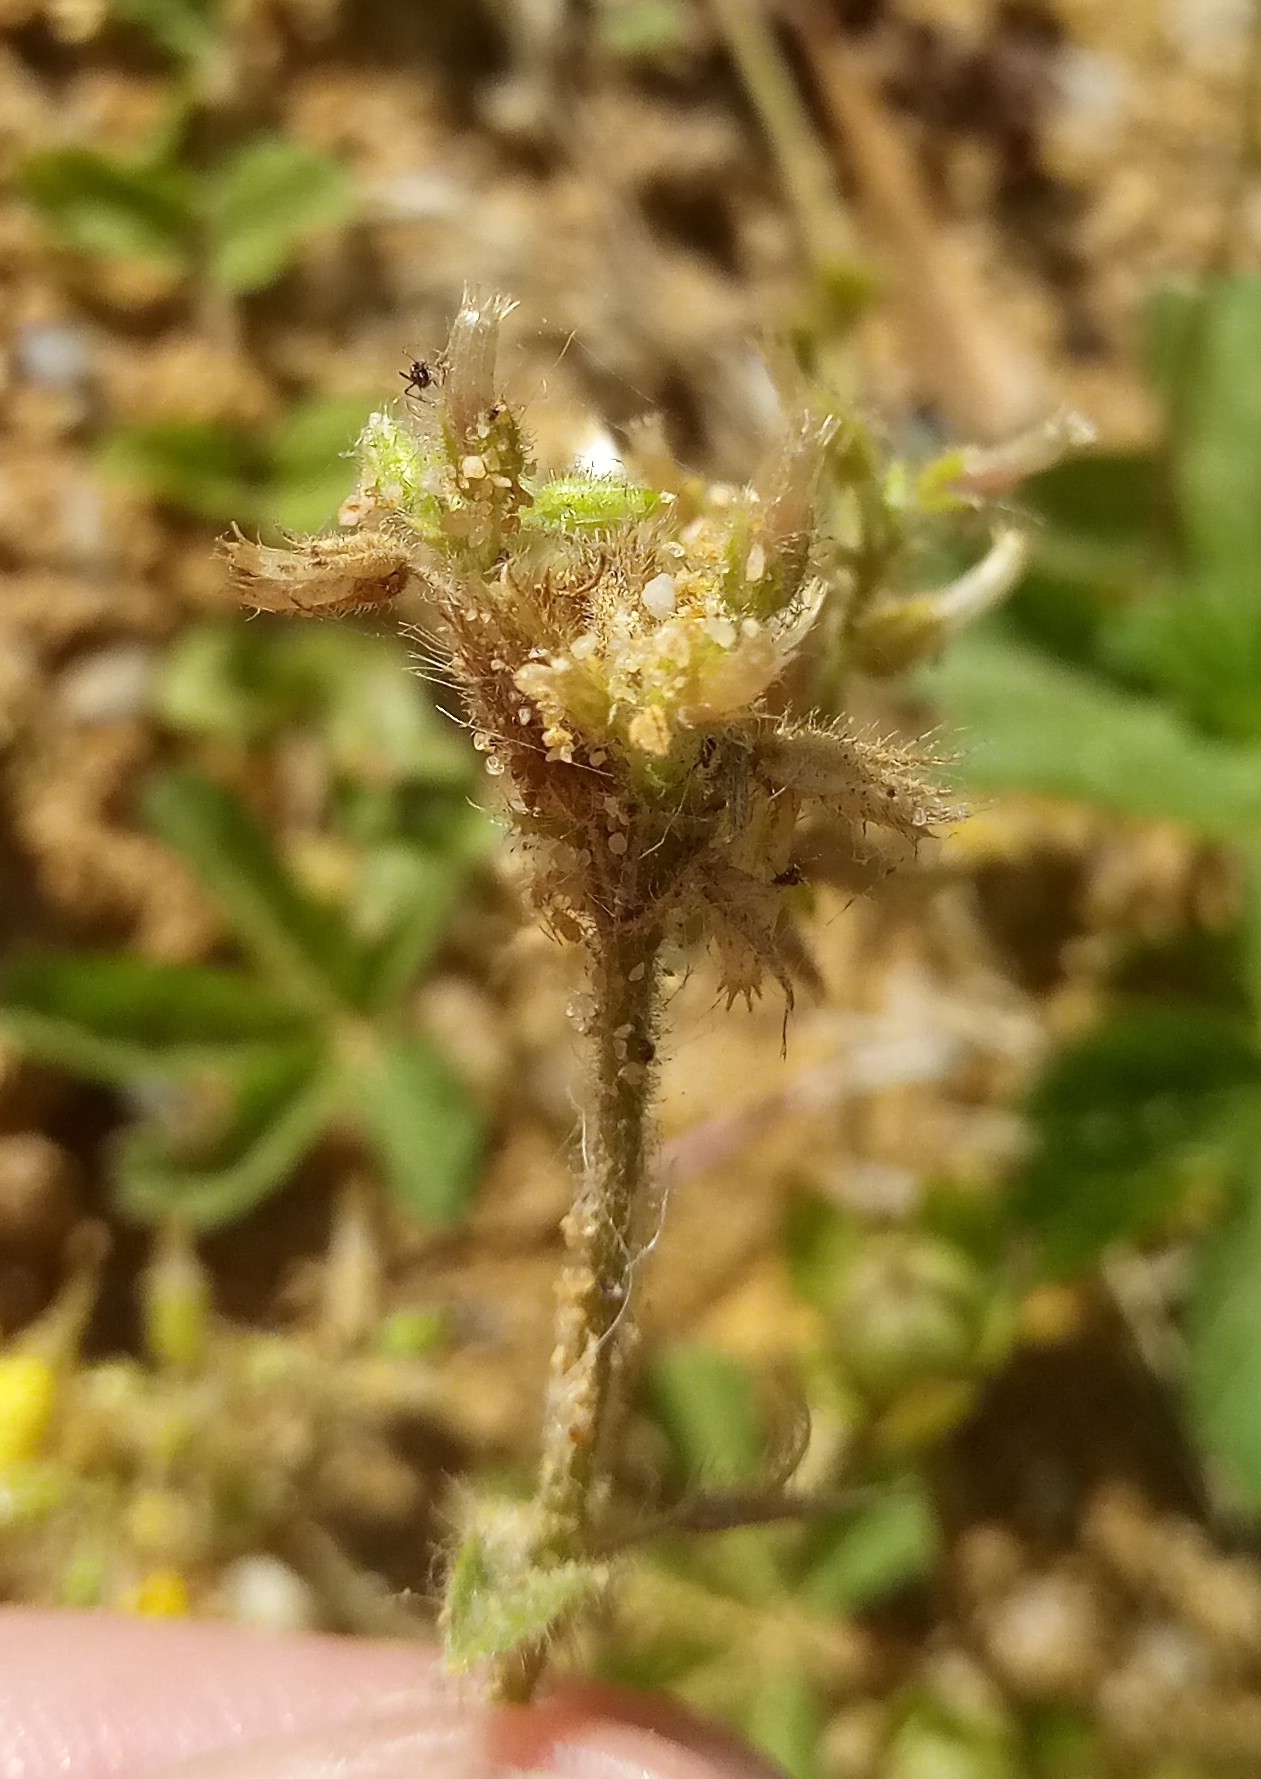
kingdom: Plantae
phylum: Tracheophyta
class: Magnoliopsida
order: Caryophyllales
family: Caryophyllaceae
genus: Cerastium
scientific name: Cerastium glomeratum
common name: Sticky chickweed
